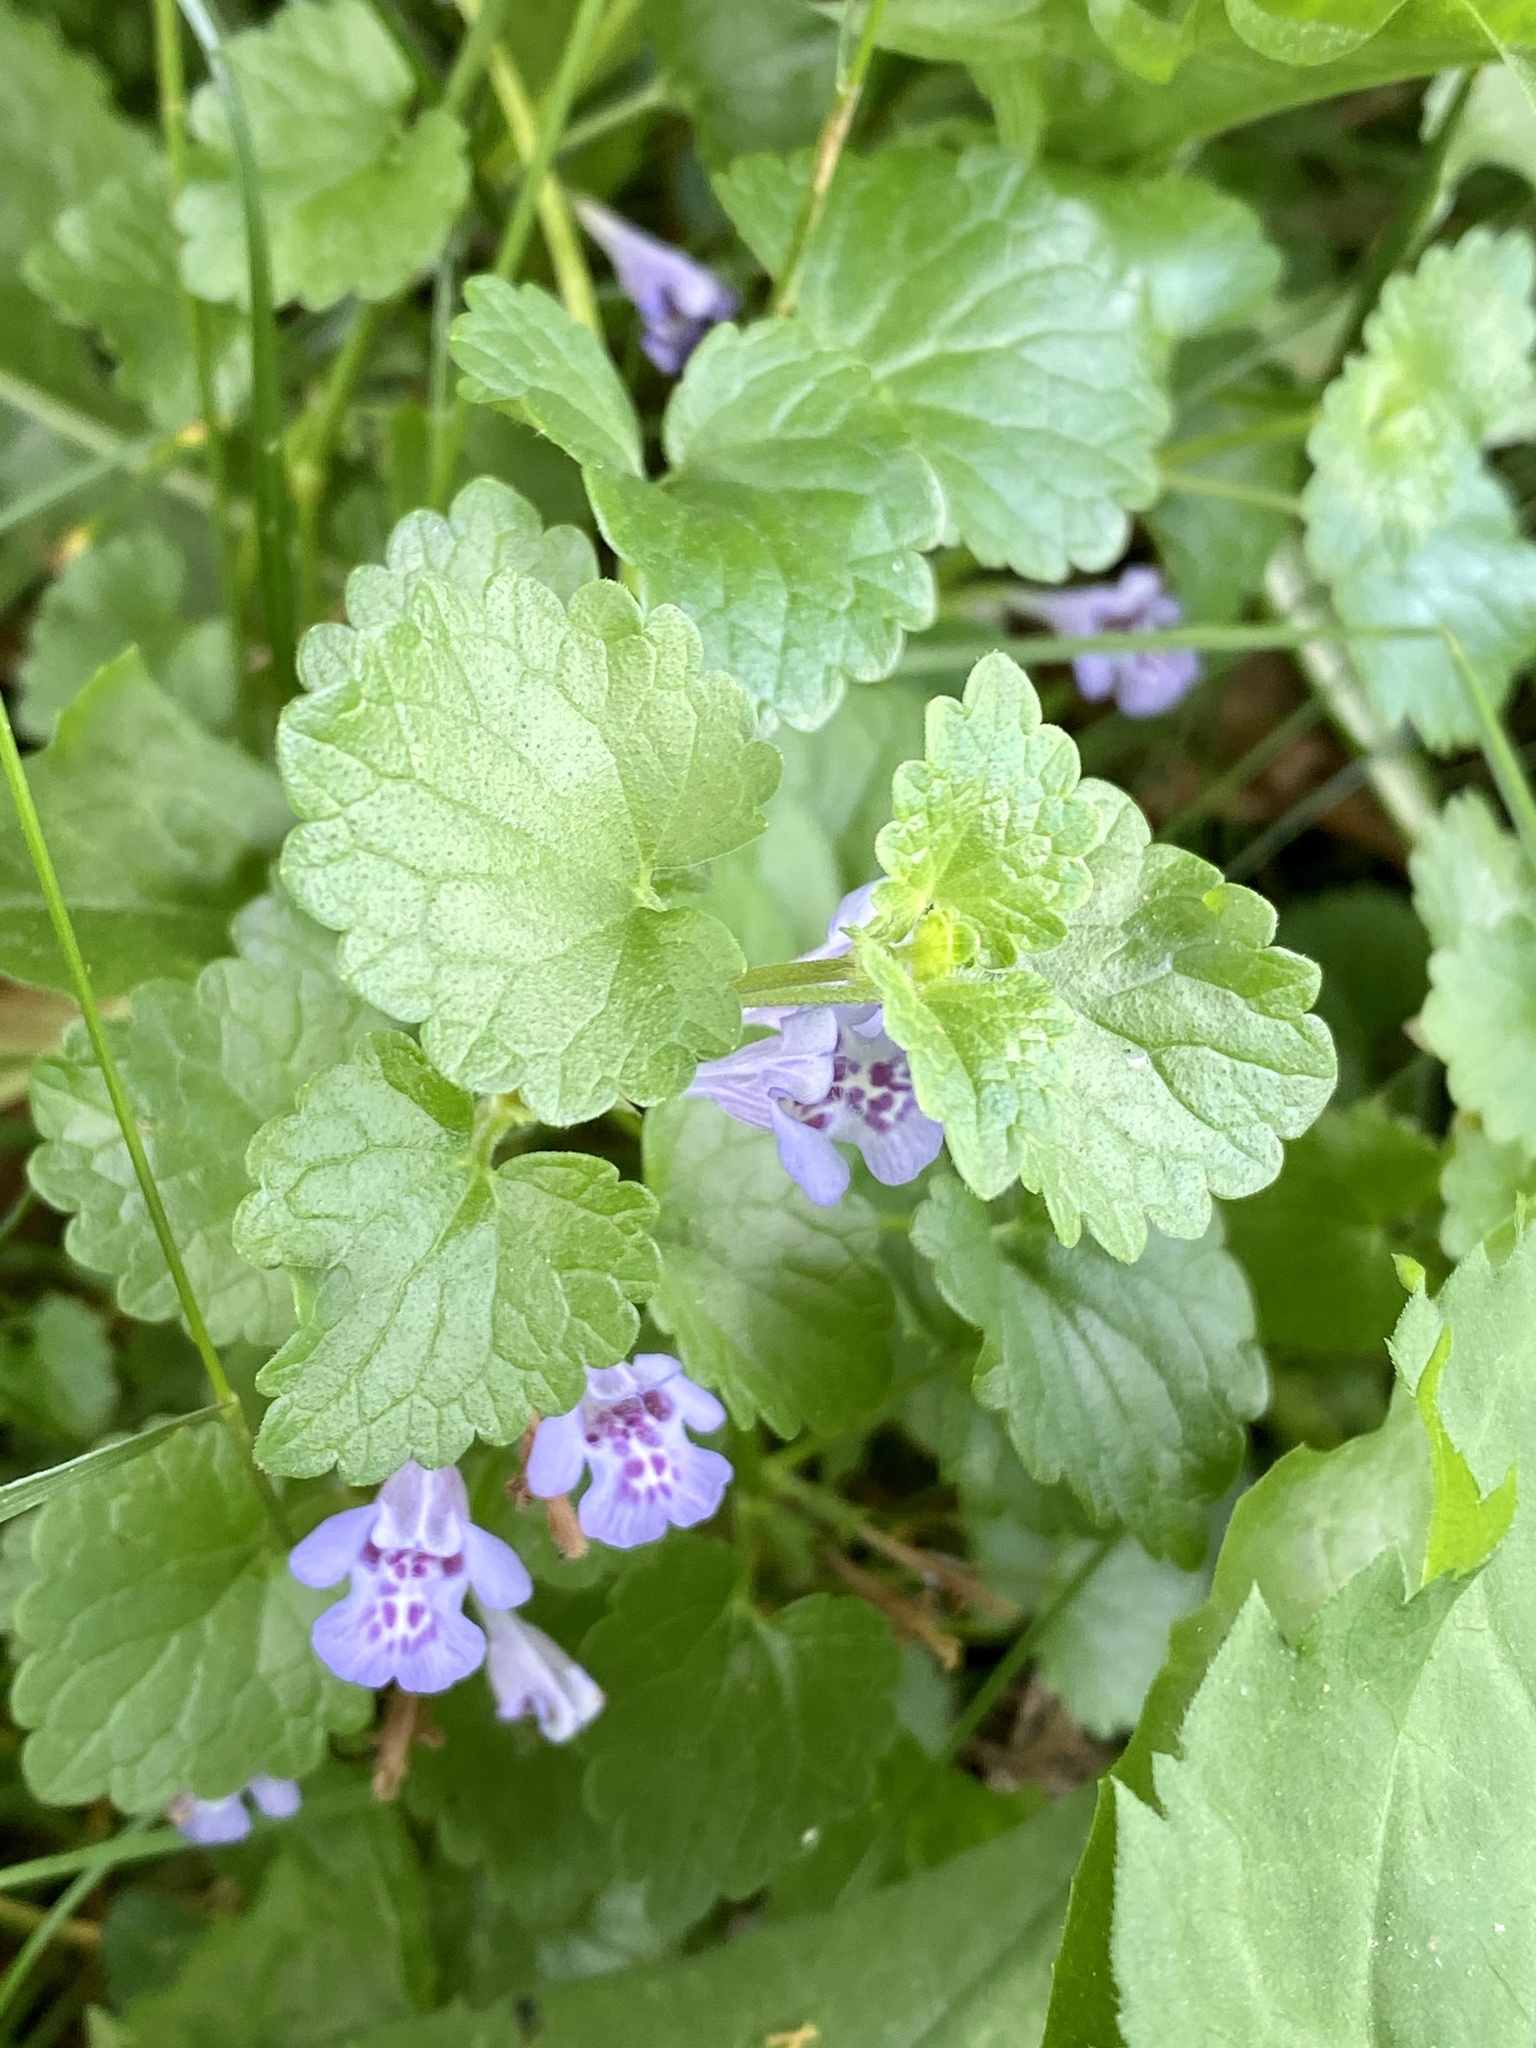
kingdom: Plantae
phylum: Tracheophyta
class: Magnoliopsida
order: Lamiales
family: Lamiaceae
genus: Glechoma
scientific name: Glechoma hederacea
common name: Ground ivy
